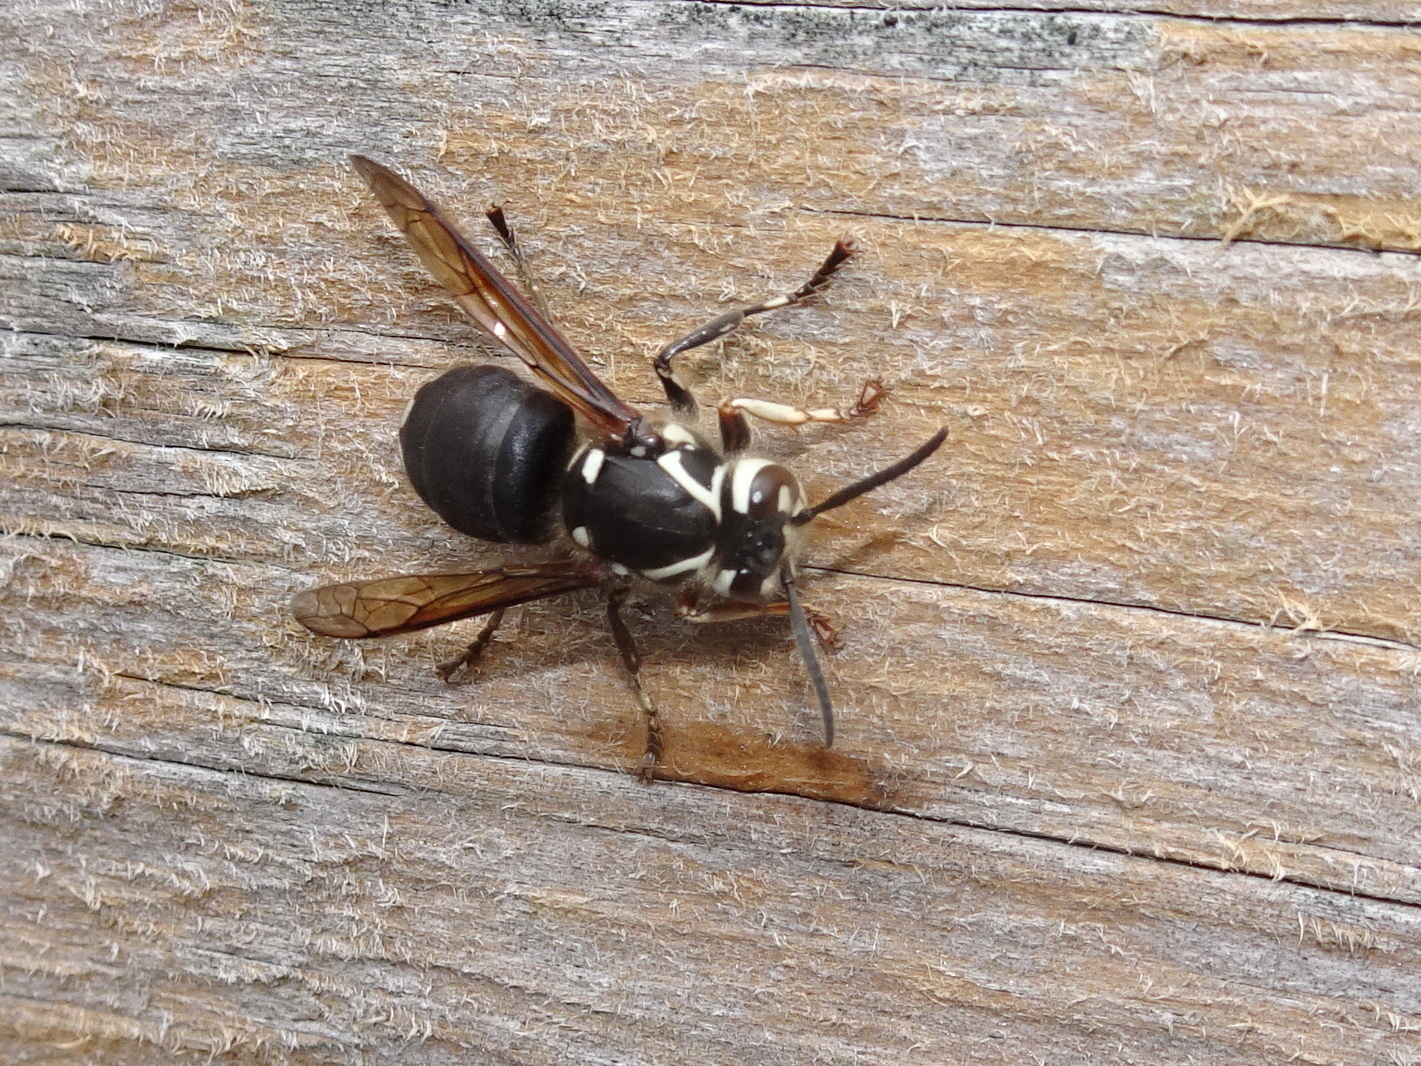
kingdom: Animalia
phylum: Arthropoda
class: Insecta
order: Hymenoptera
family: Vespidae
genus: Dolichovespula
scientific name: Dolichovespula maculata
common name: Bald-faced hornet
